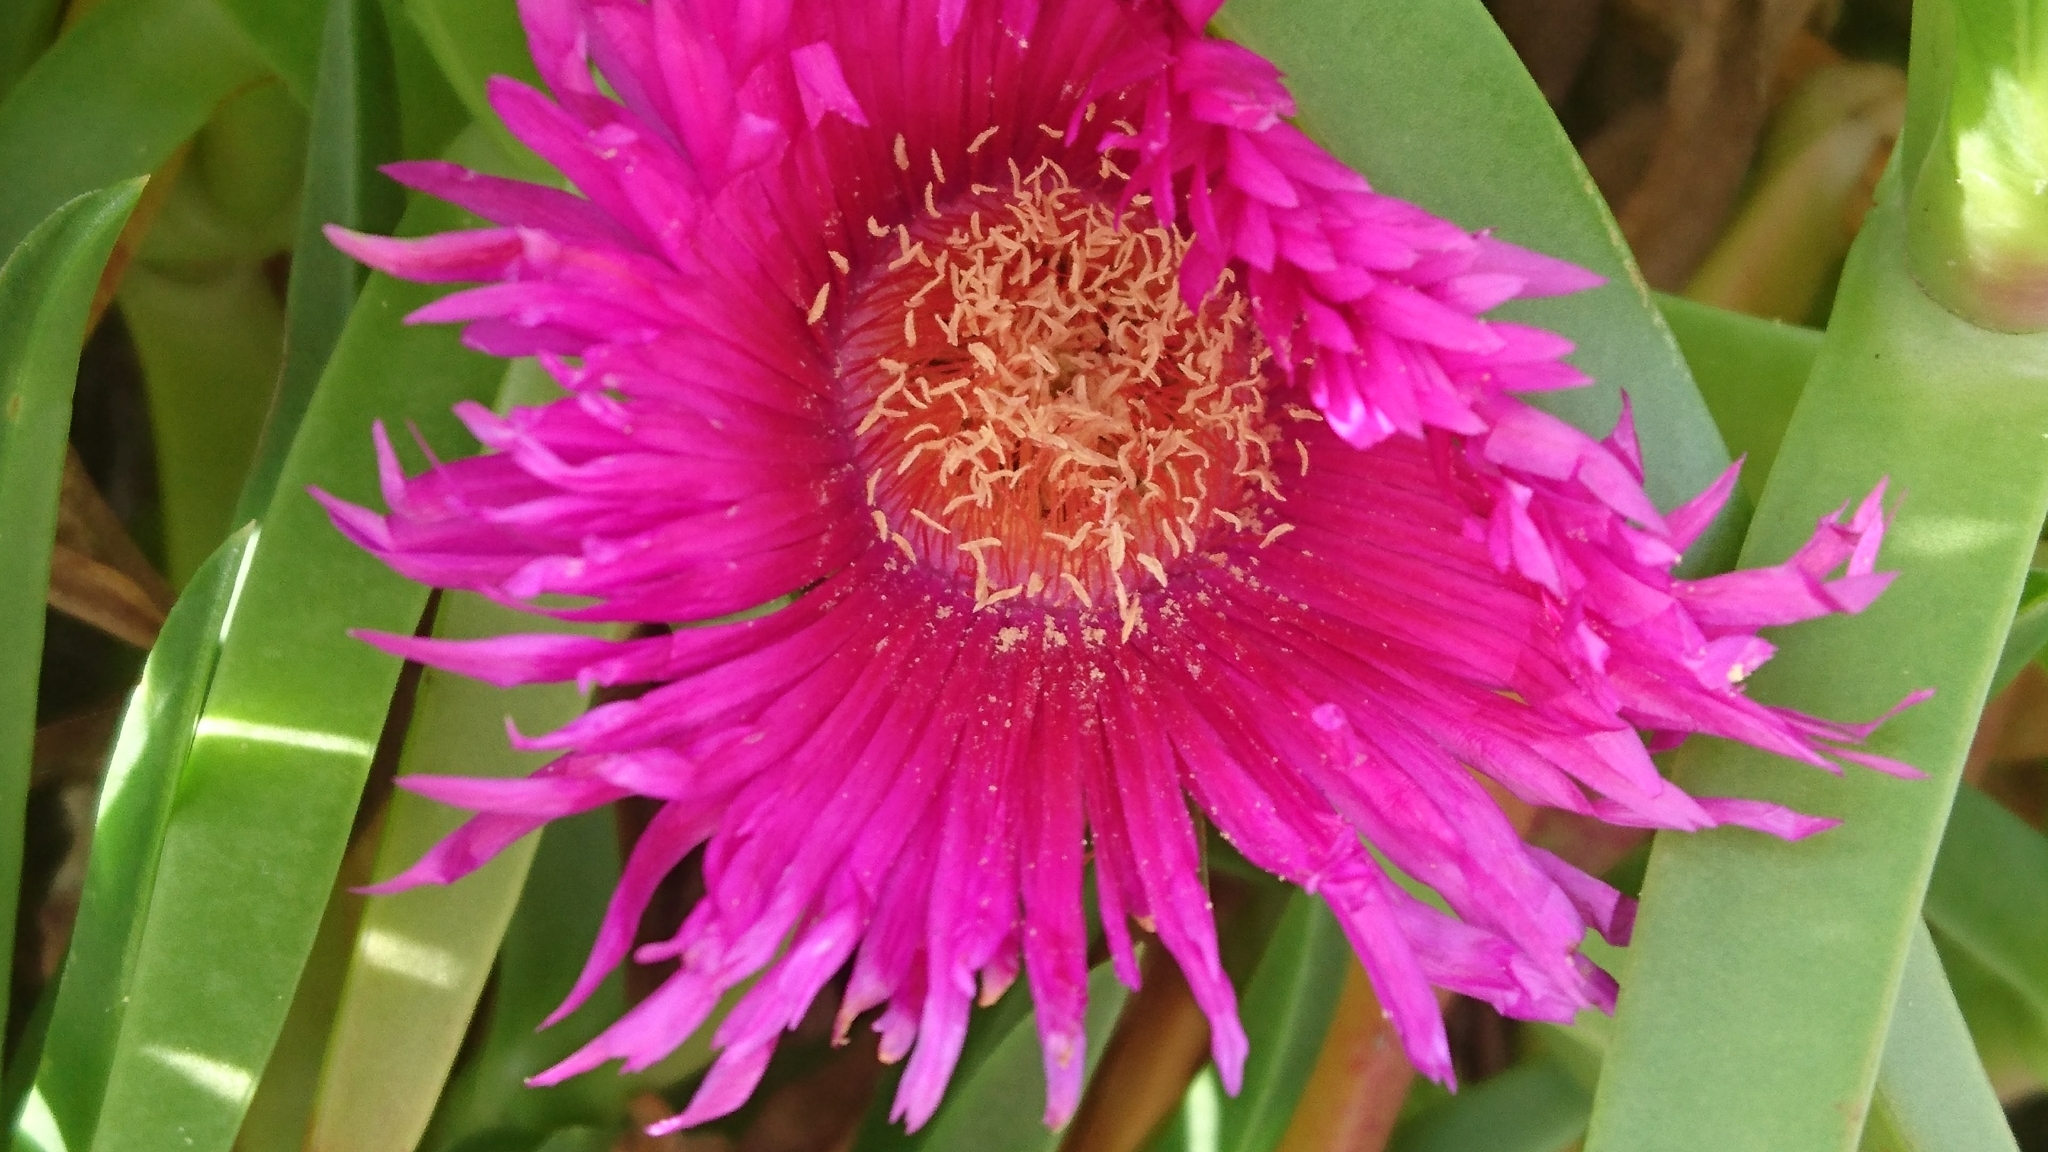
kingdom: Plantae
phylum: Tracheophyta
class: Magnoliopsida
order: Caryophyllales
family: Aizoaceae
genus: Carpobrotus
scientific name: Carpobrotus glaucescens
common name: Angular sea-fig
